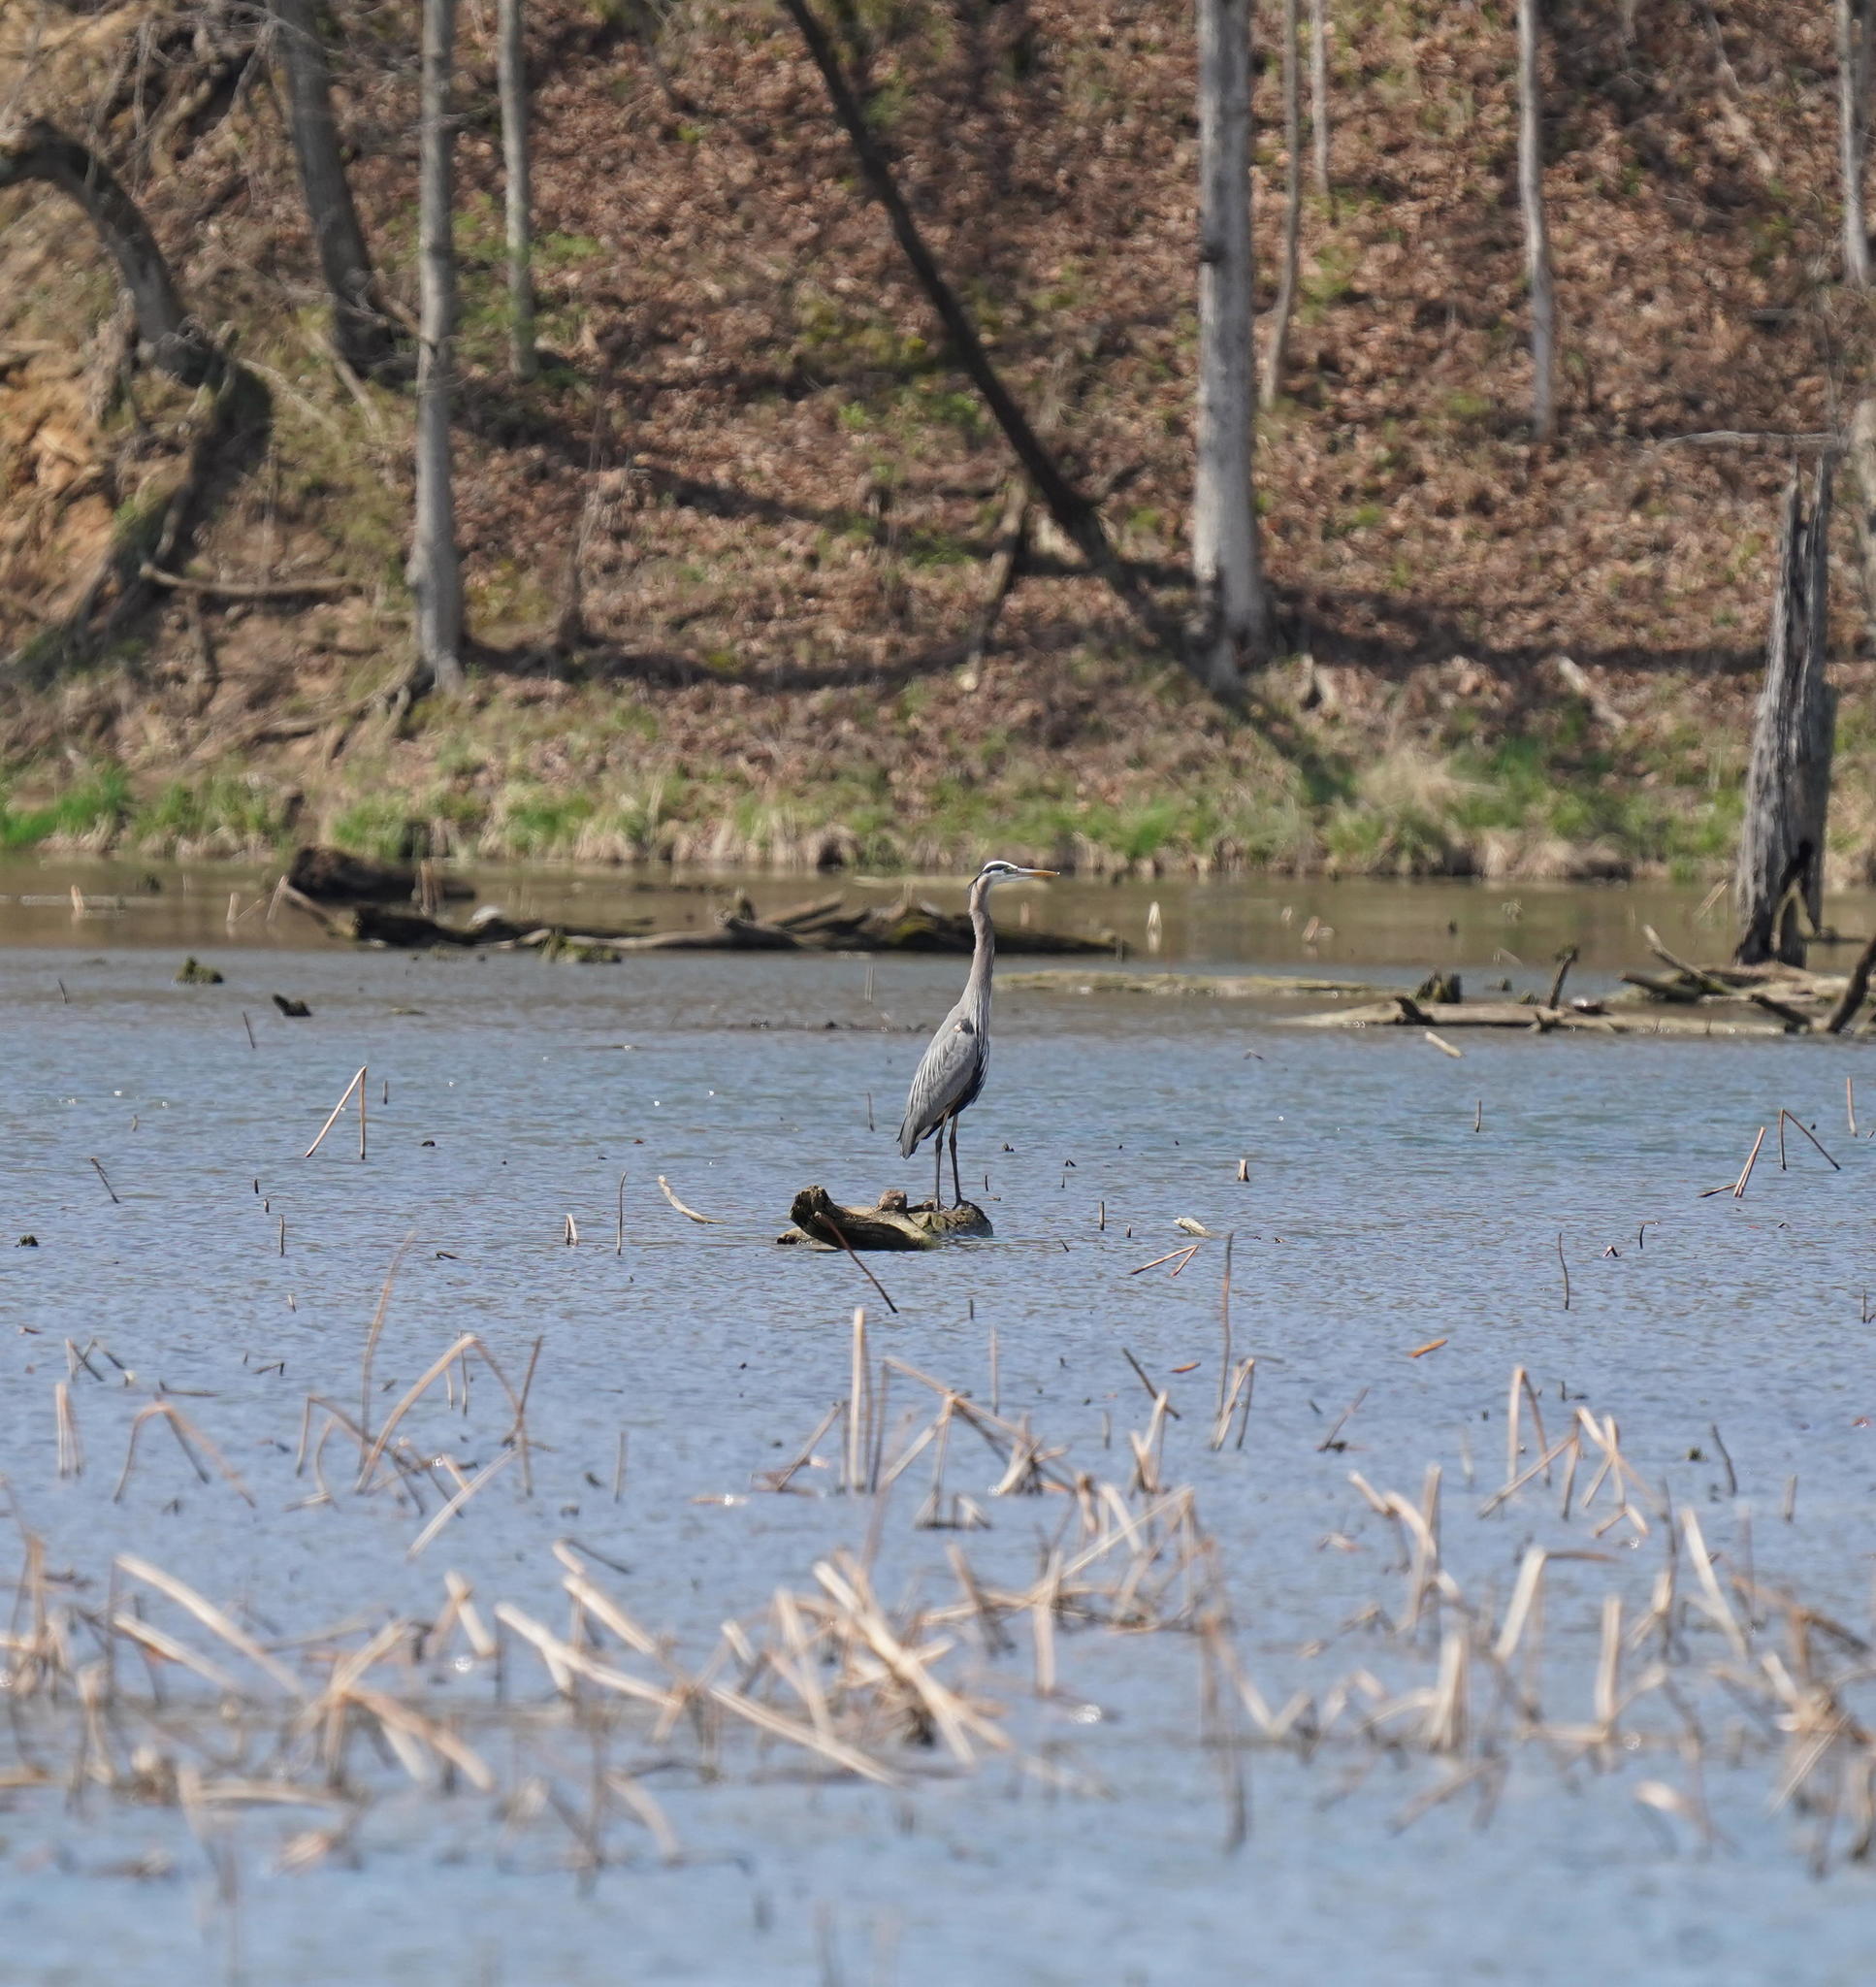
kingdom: Animalia
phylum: Chordata
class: Aves
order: Pelecaniformes
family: Ardeidae
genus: Ardea
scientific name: Ardea herodias
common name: Great blue heron
